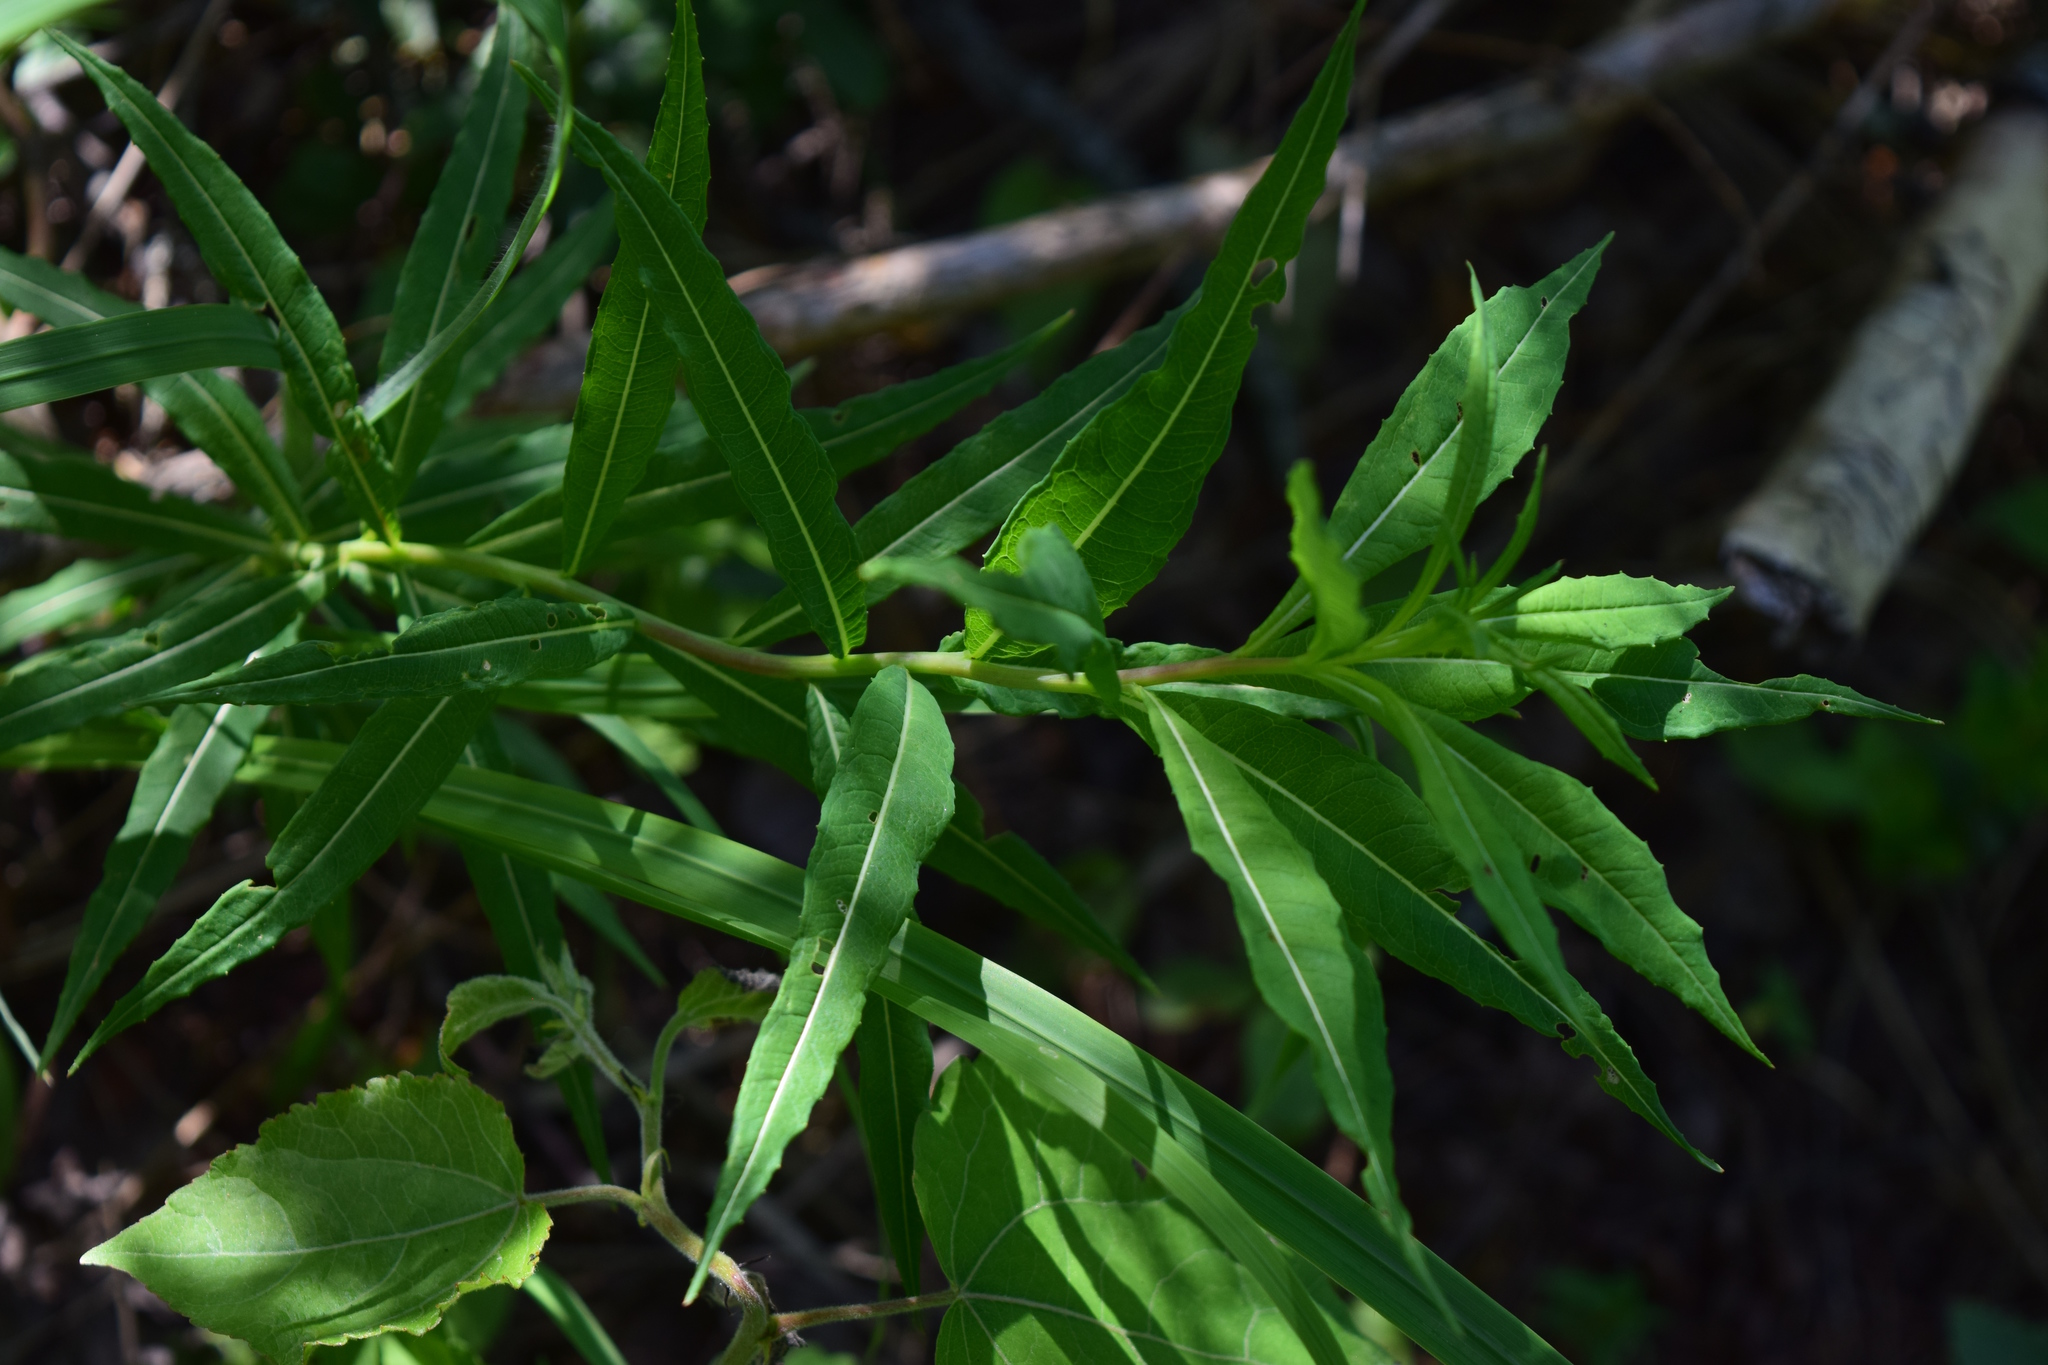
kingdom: Plantae
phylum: Tracheophyta
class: Magnoliopsida
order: Myrtales
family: Onagraceae
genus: Chamaenerion
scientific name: Chamaenerion angustifolium
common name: Fireweed
